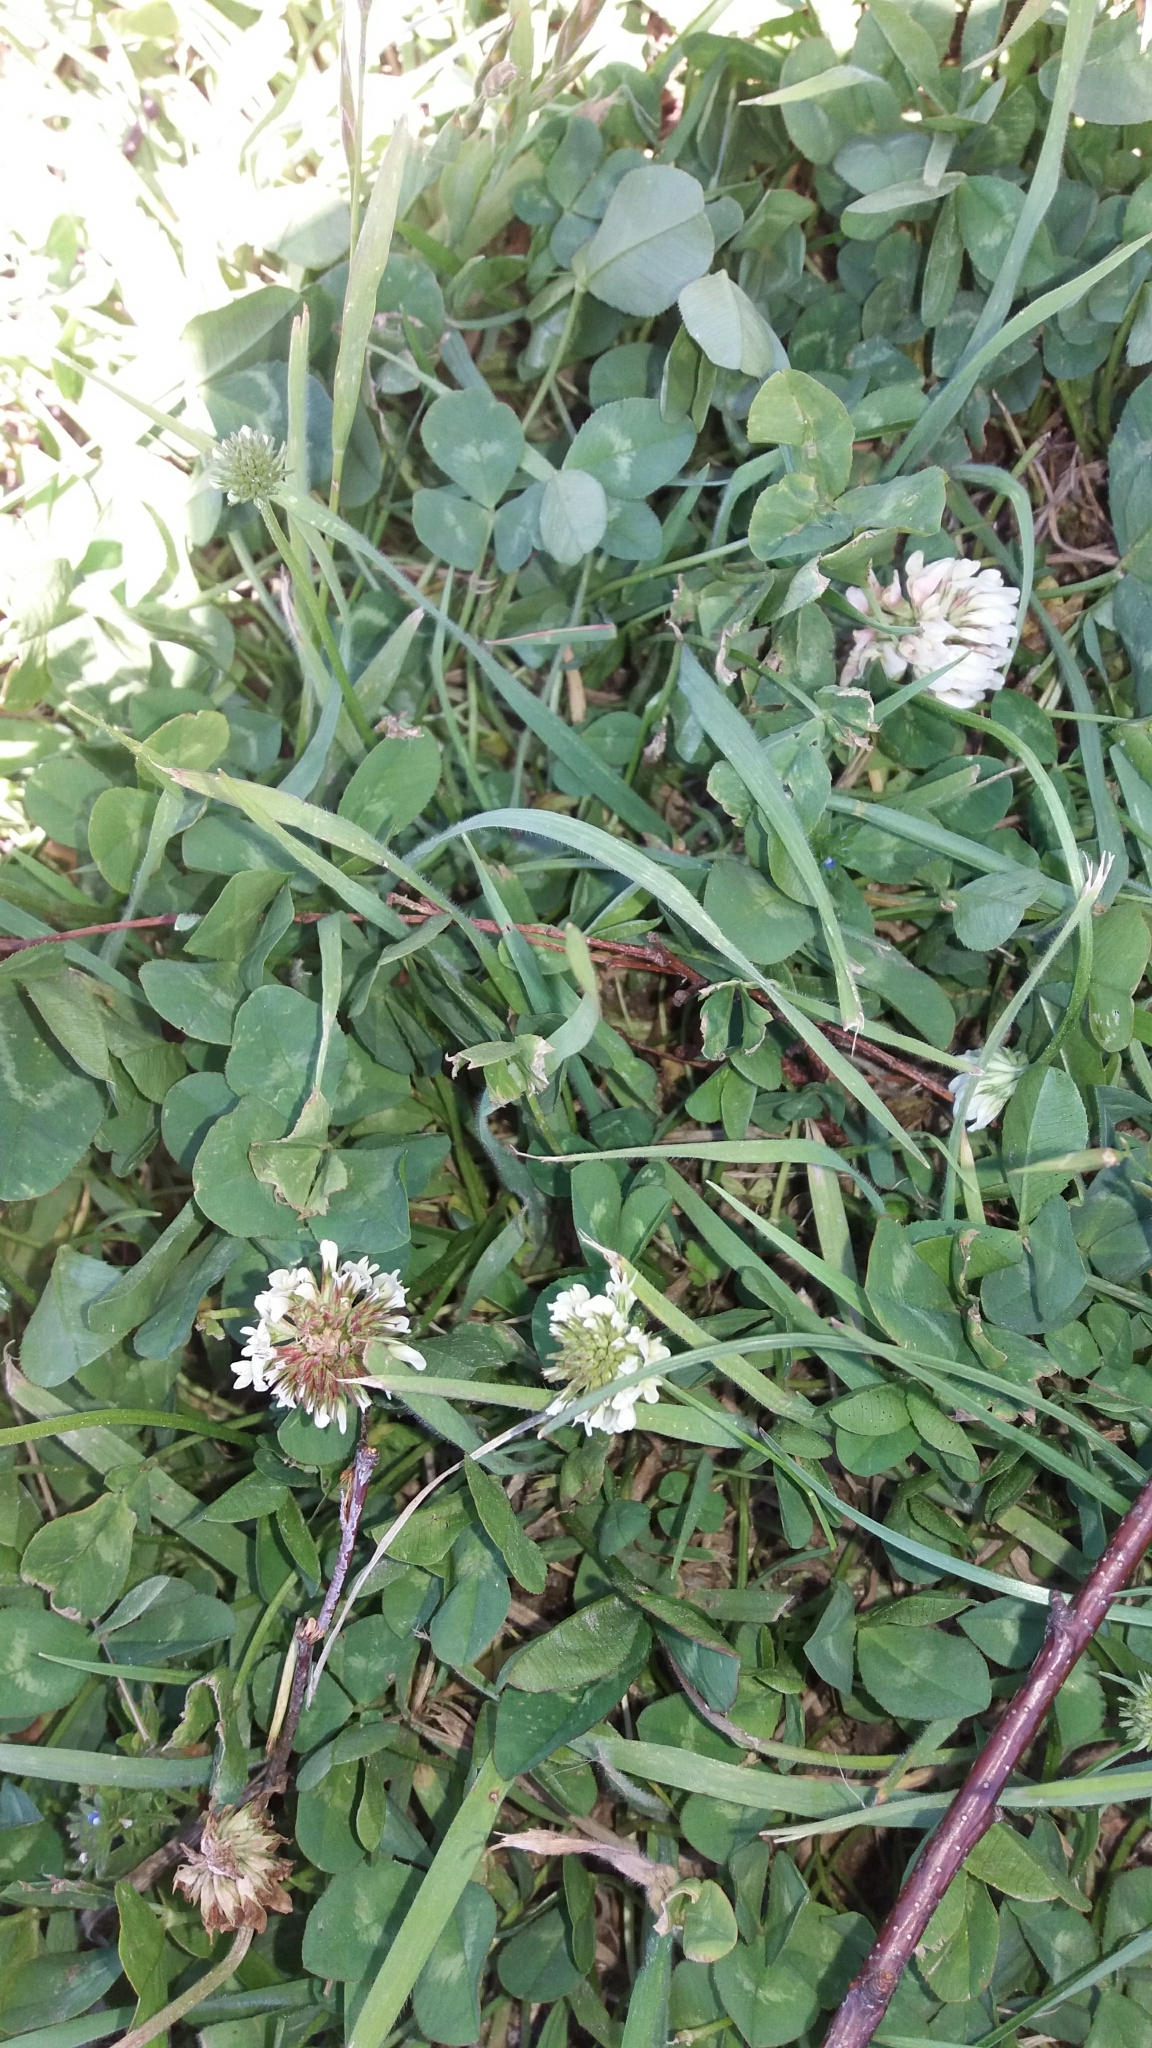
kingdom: Plantae
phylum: Tracheophyta
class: Magnoliopsida
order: Fabales
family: Fabaceae
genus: Trifolium
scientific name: Trifolium repens
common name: White clover
